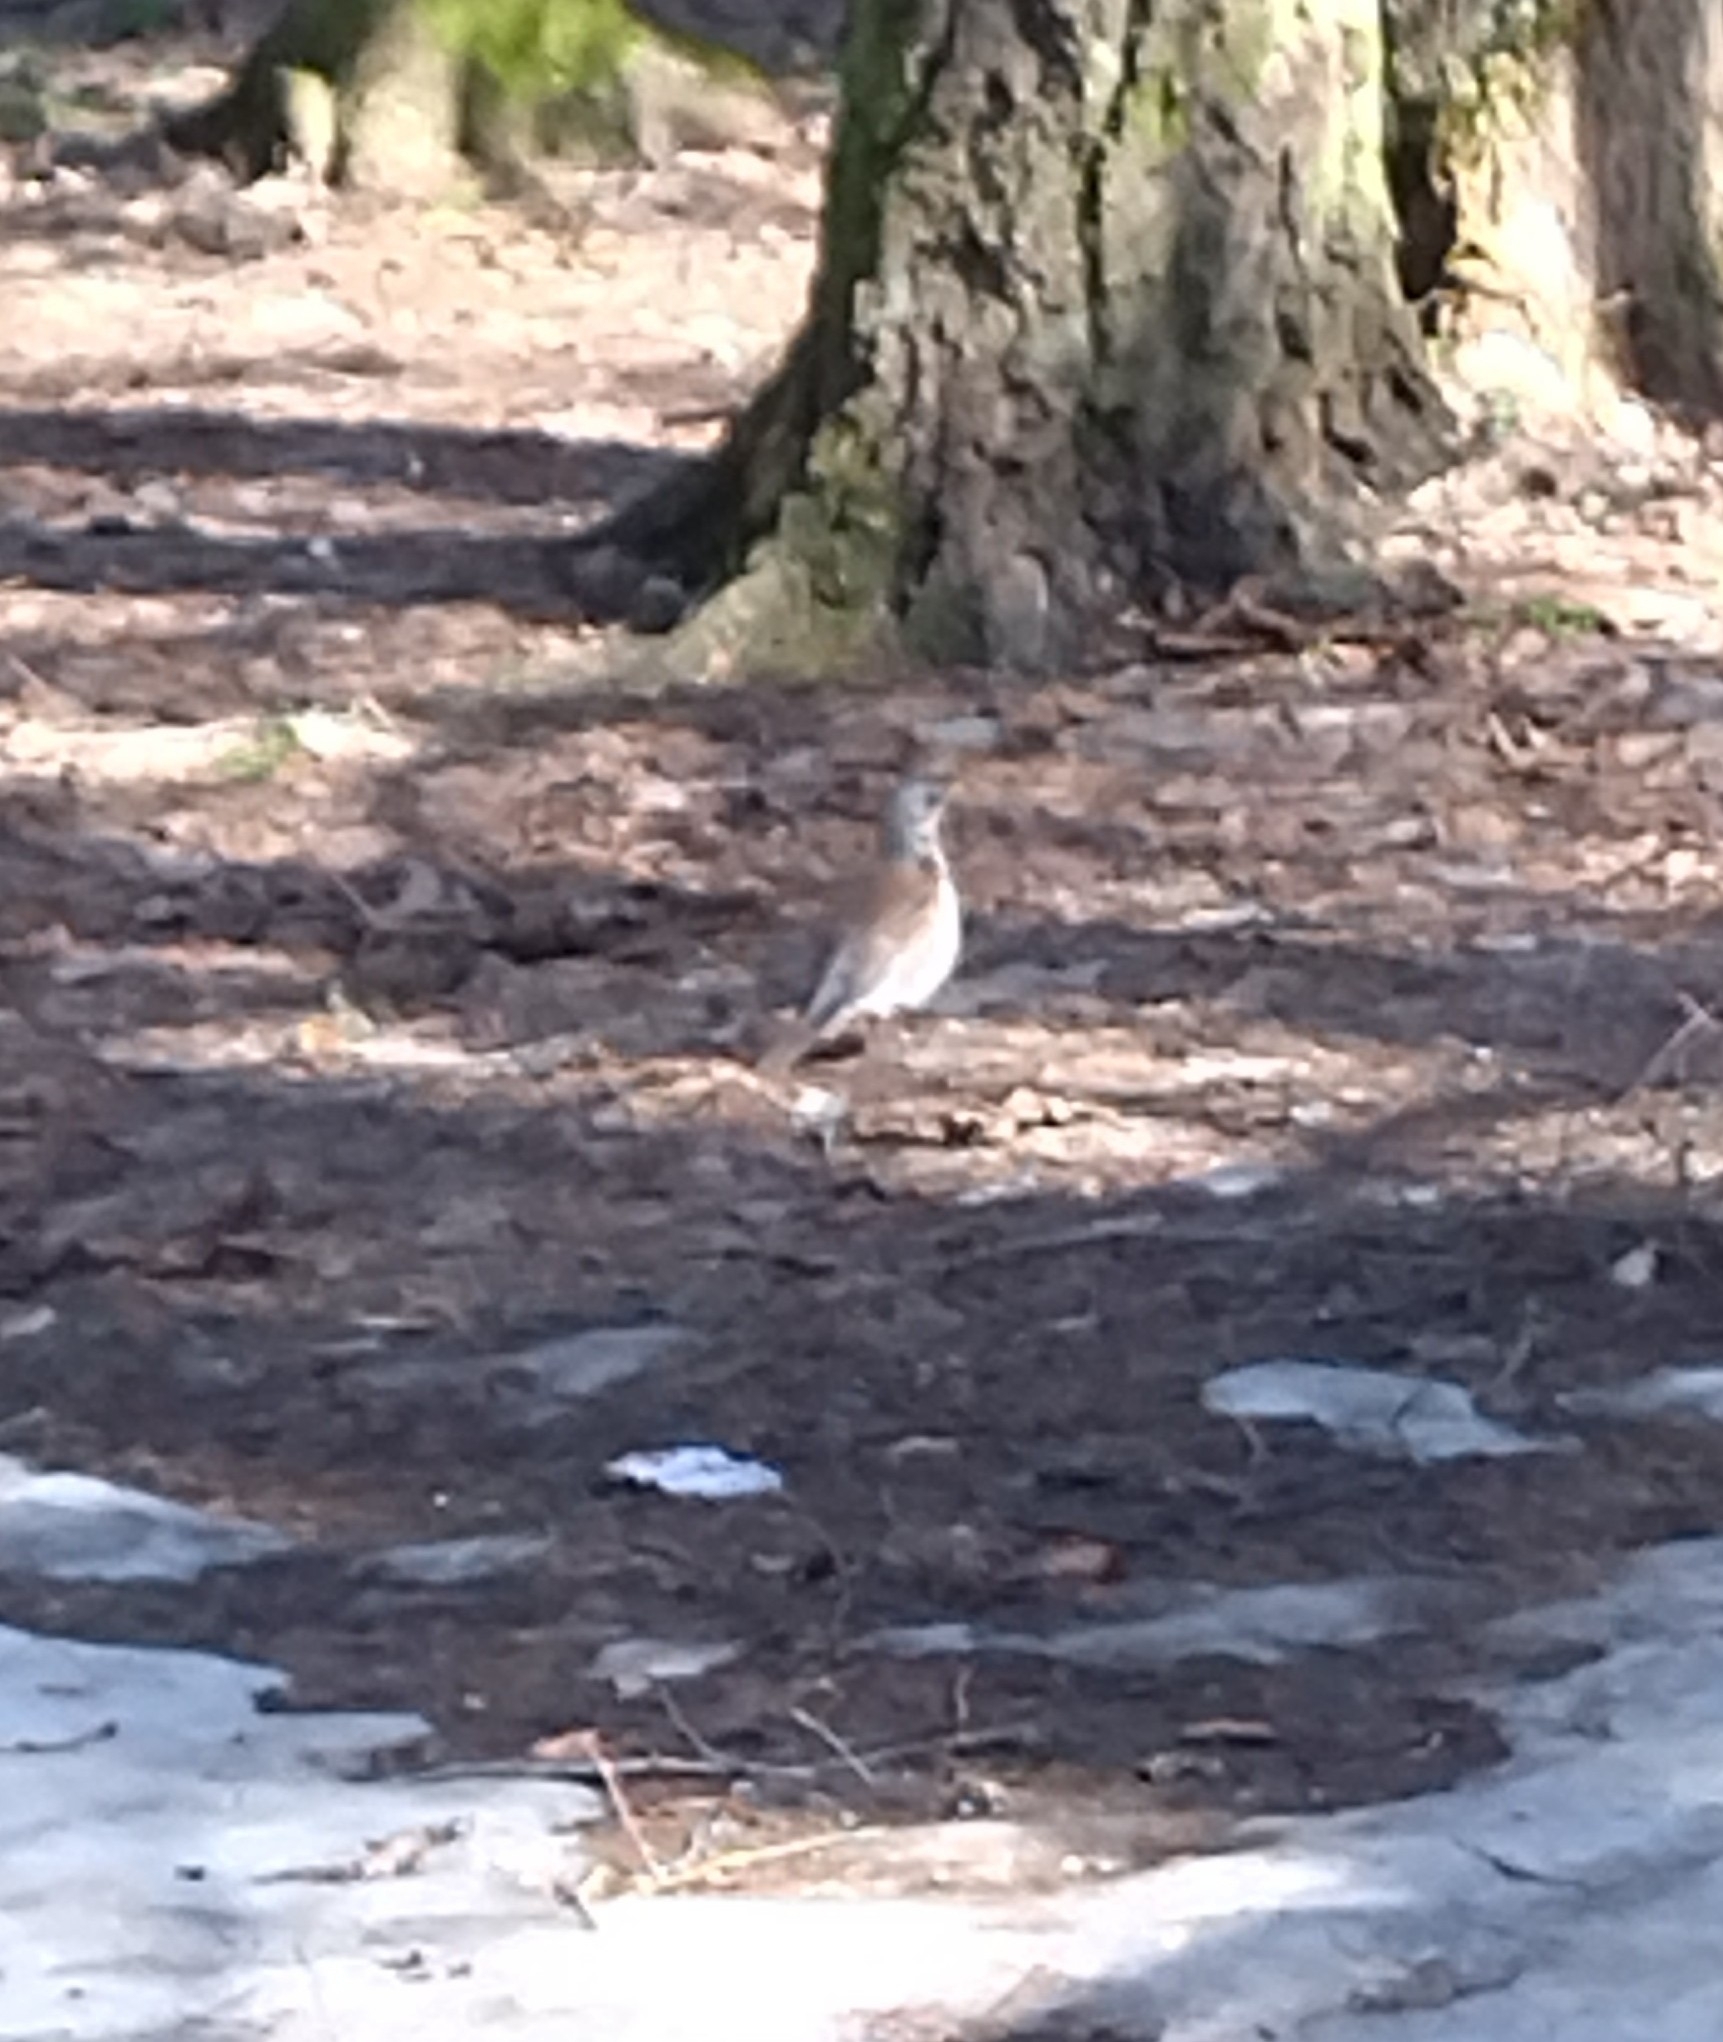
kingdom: Animalia
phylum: Chordata
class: Aves
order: Passeriformes
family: Turdidae
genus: Turdus
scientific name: Turdus pilaris
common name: Fieldfare
